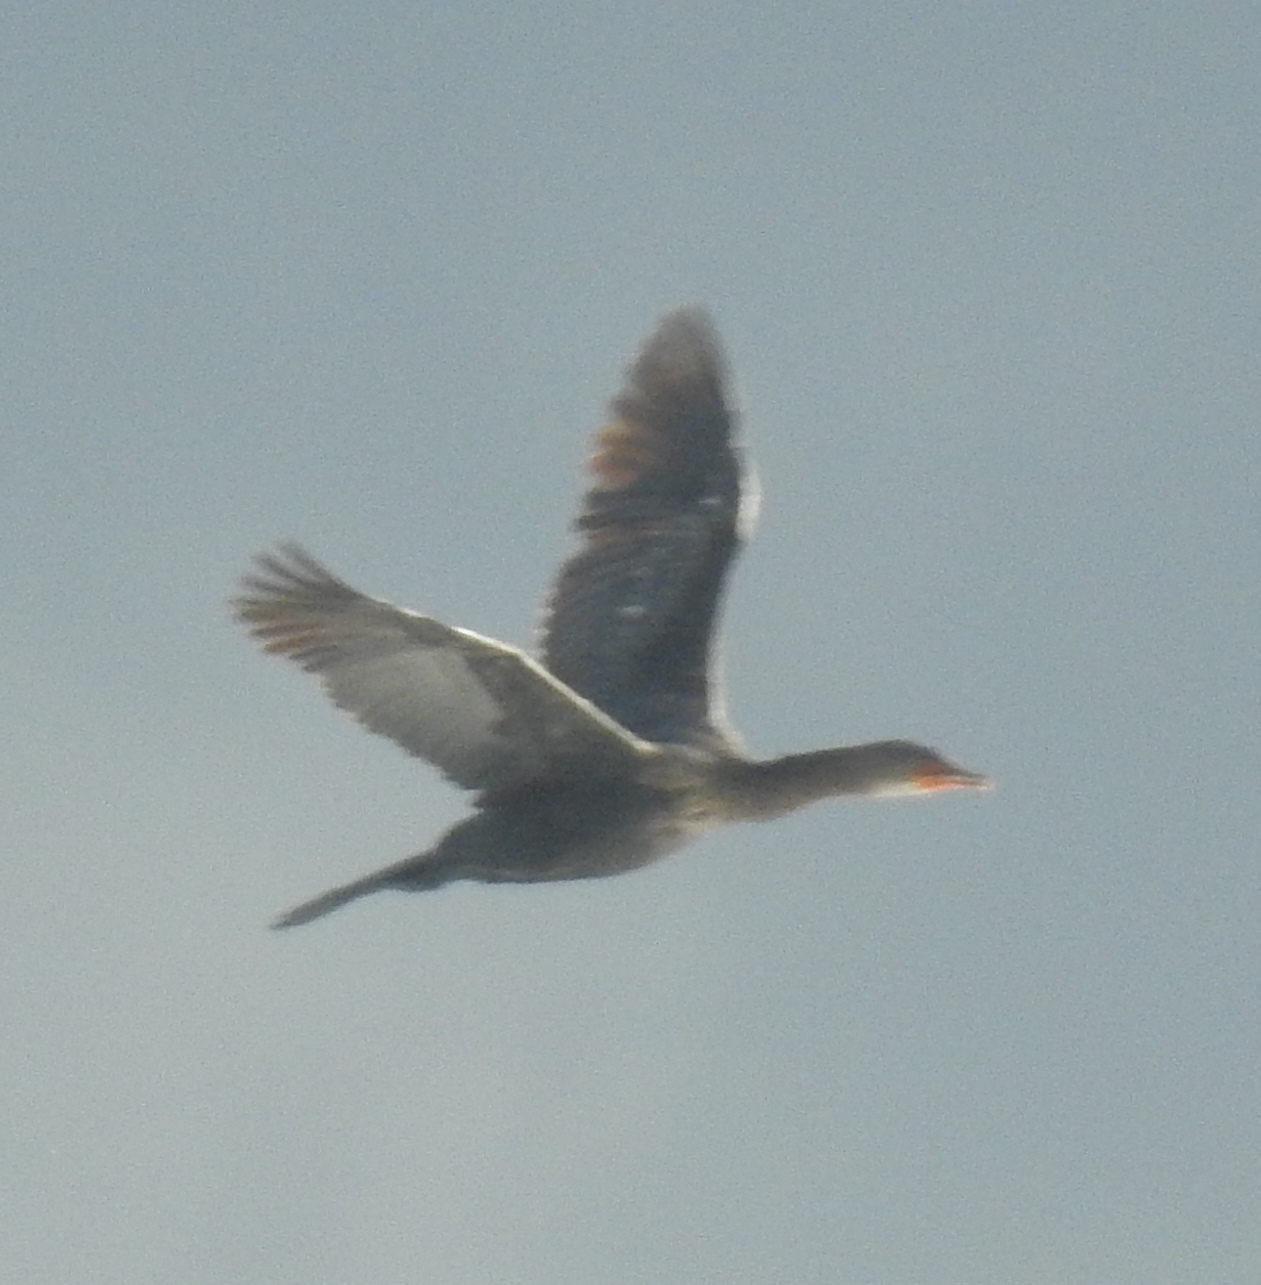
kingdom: Animalia
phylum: Chordata
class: Aves
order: Suliformes
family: Phalacrocoracidae
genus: Microcarbo
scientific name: Microcarbo africanus
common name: Long-tailed cormorant
